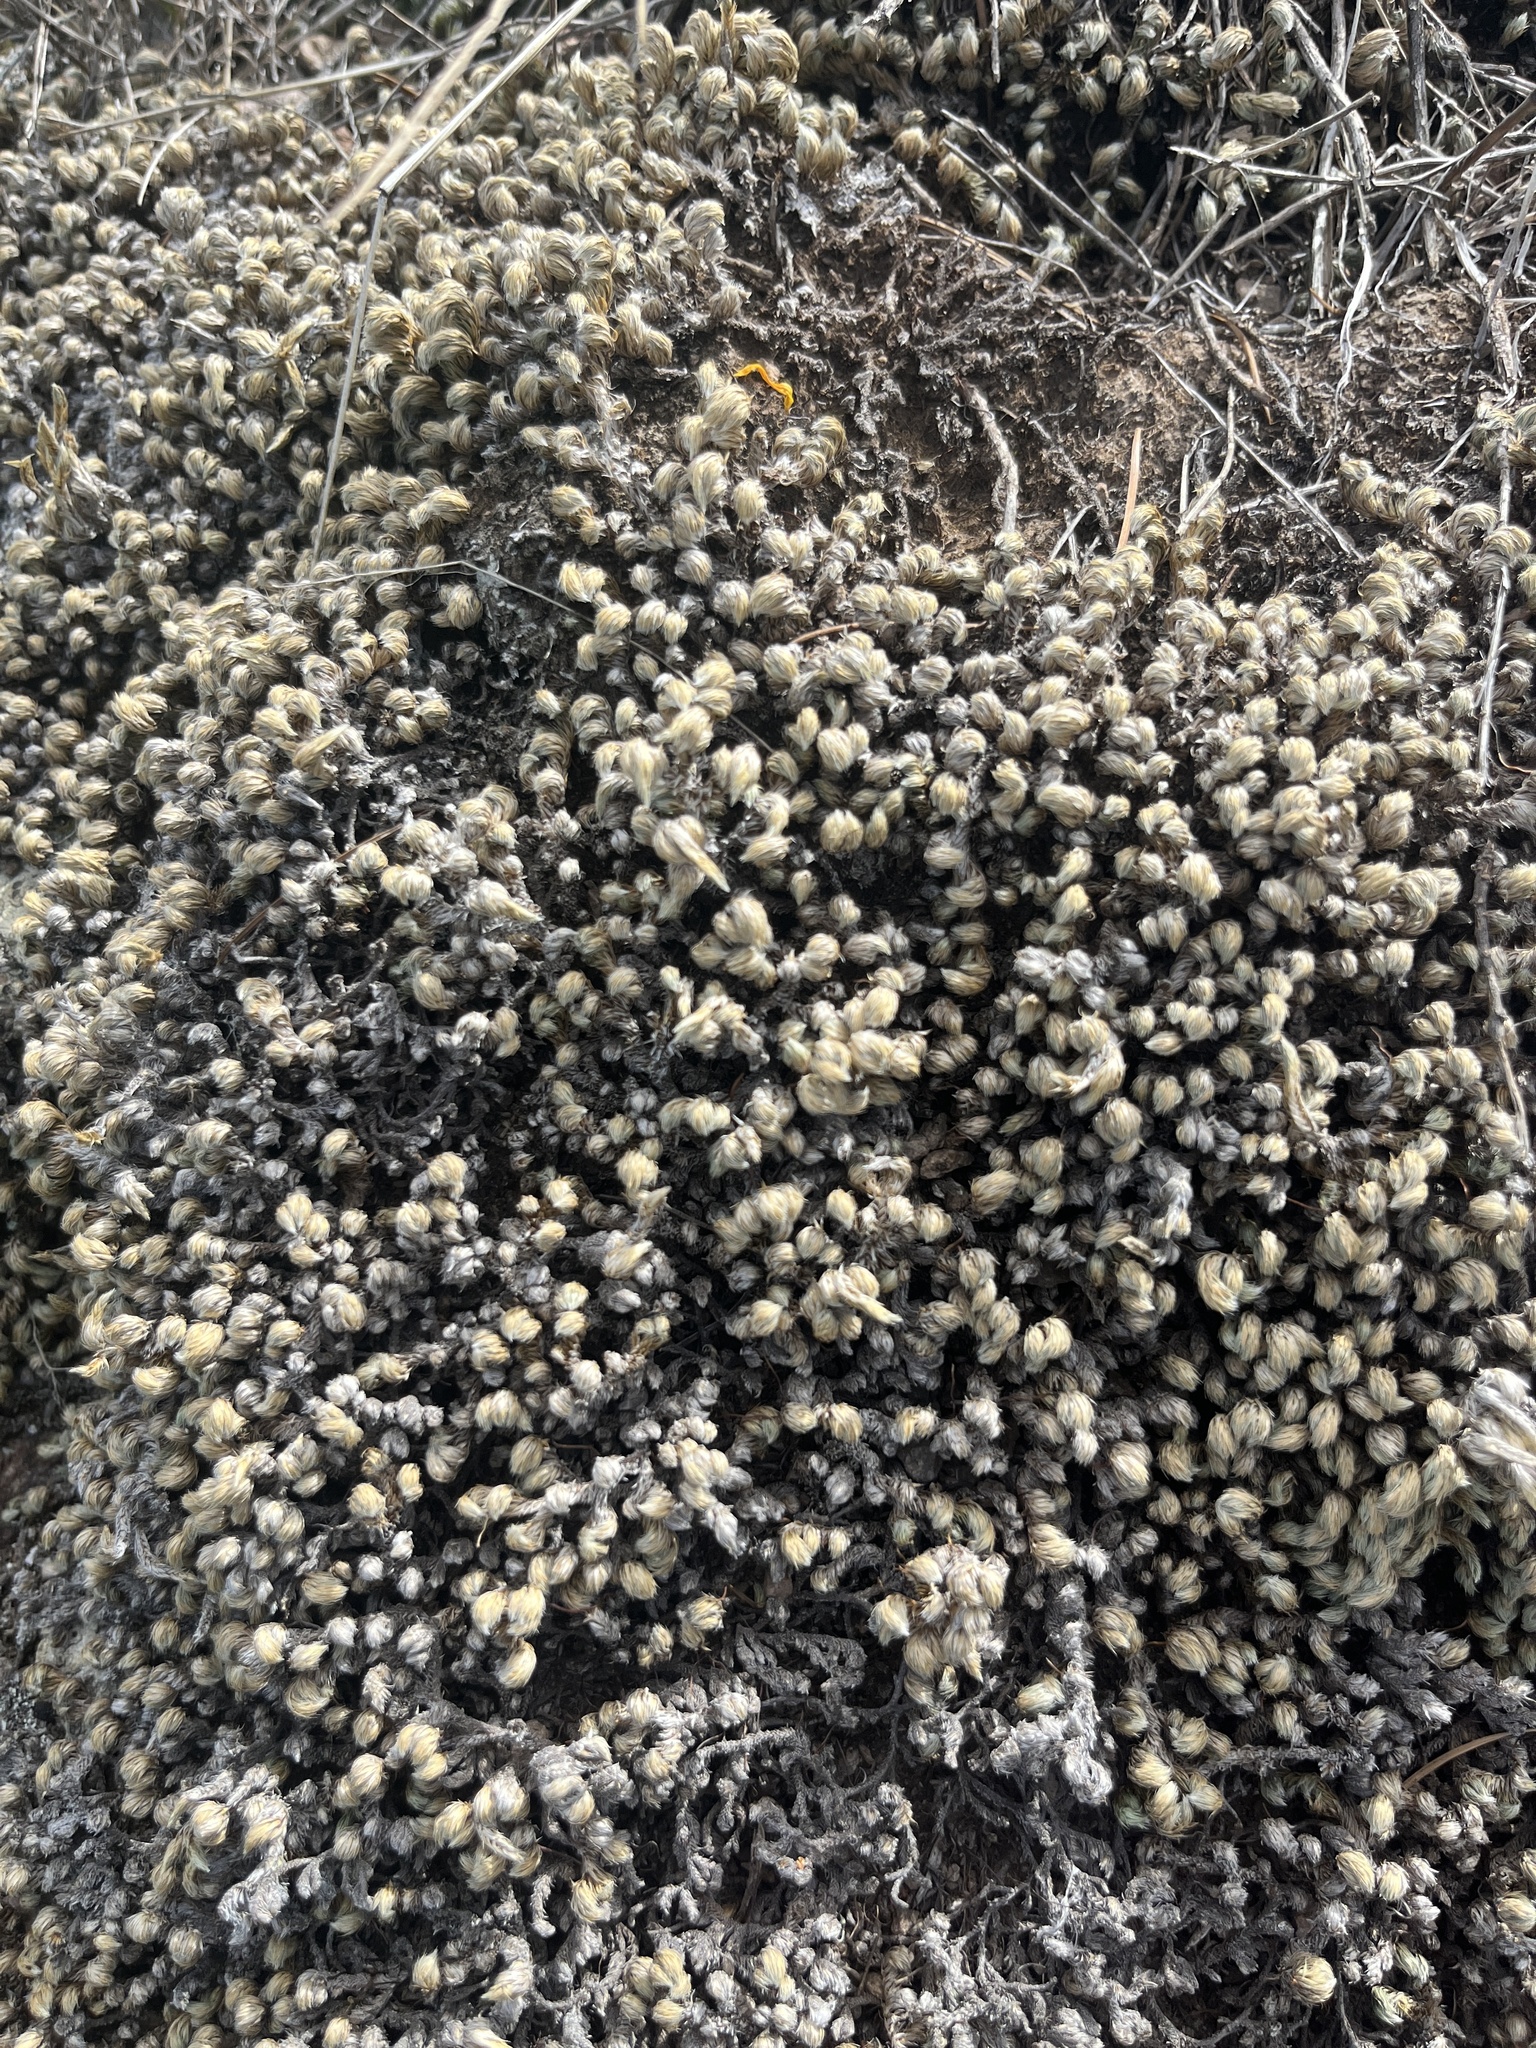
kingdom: Plantae
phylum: Tracheophyta
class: Polypodiopsida
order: Polypodiales
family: Pteridaceae
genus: Myriopteris
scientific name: Myriopteris fendleri
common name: Fendler's lip fern
